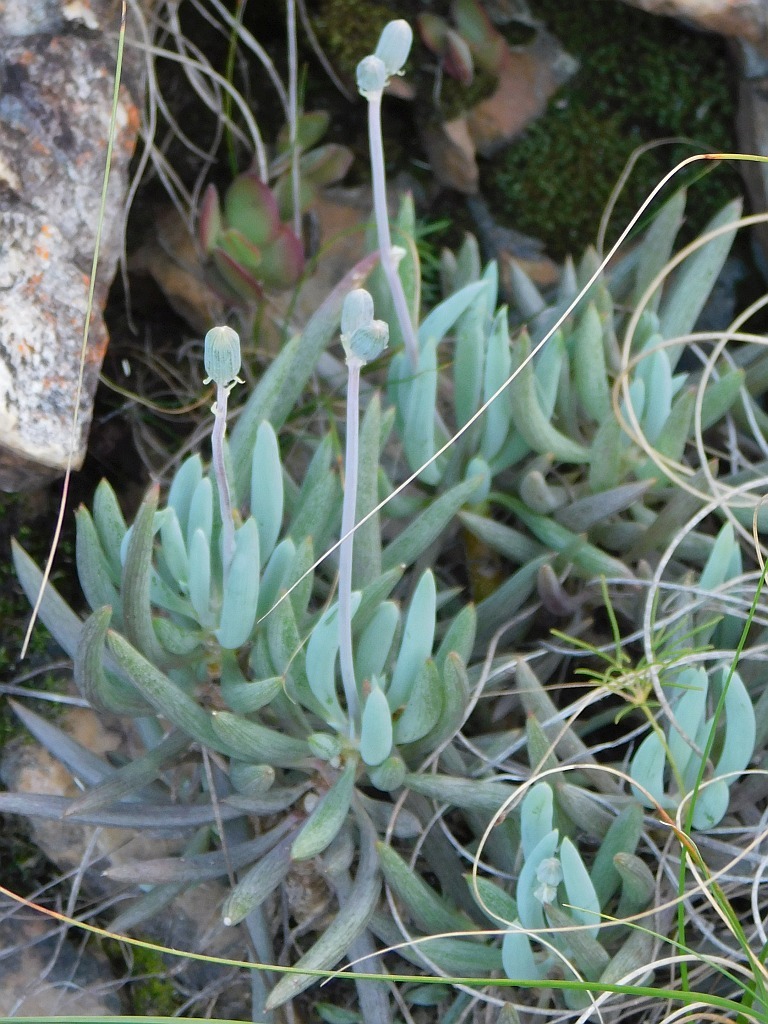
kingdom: Plantae
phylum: Tracheophyta
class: Magnoliopsida
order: Asterales
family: Asteraceae
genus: Curio
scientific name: Curio talinoides
